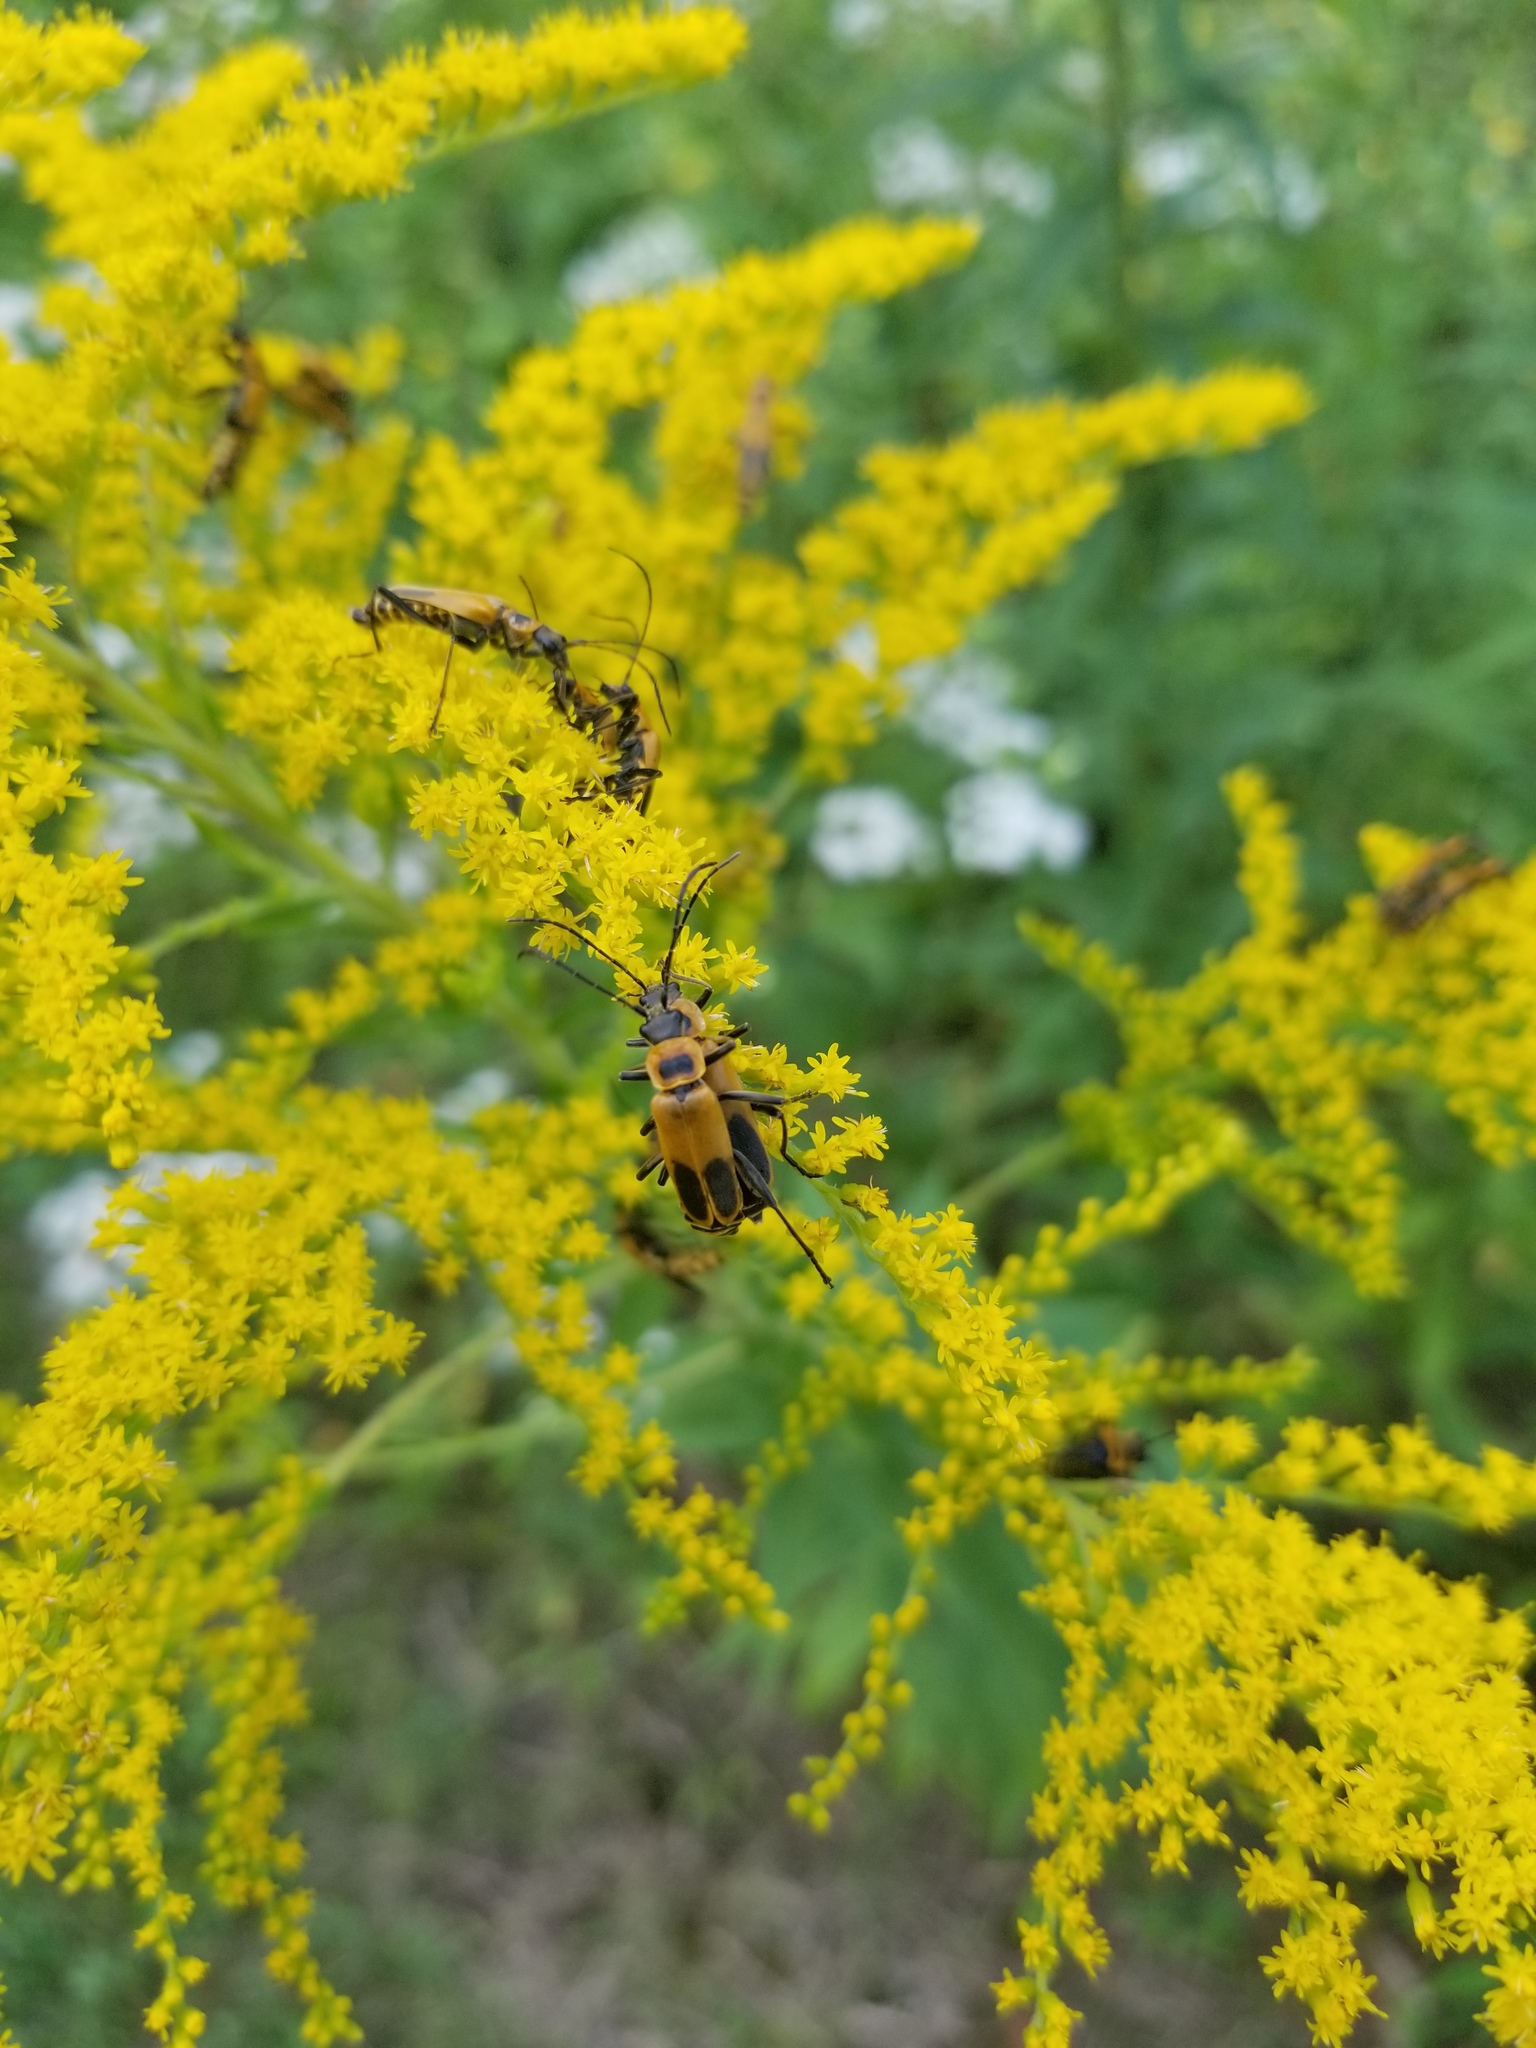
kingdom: Animalia
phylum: Arthropoda
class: Insecta
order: Coleoptera
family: Cantharidae
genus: Chauliognathus
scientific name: Chauliognathus pensylvanicus
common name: Goldenrod soldier beetle
